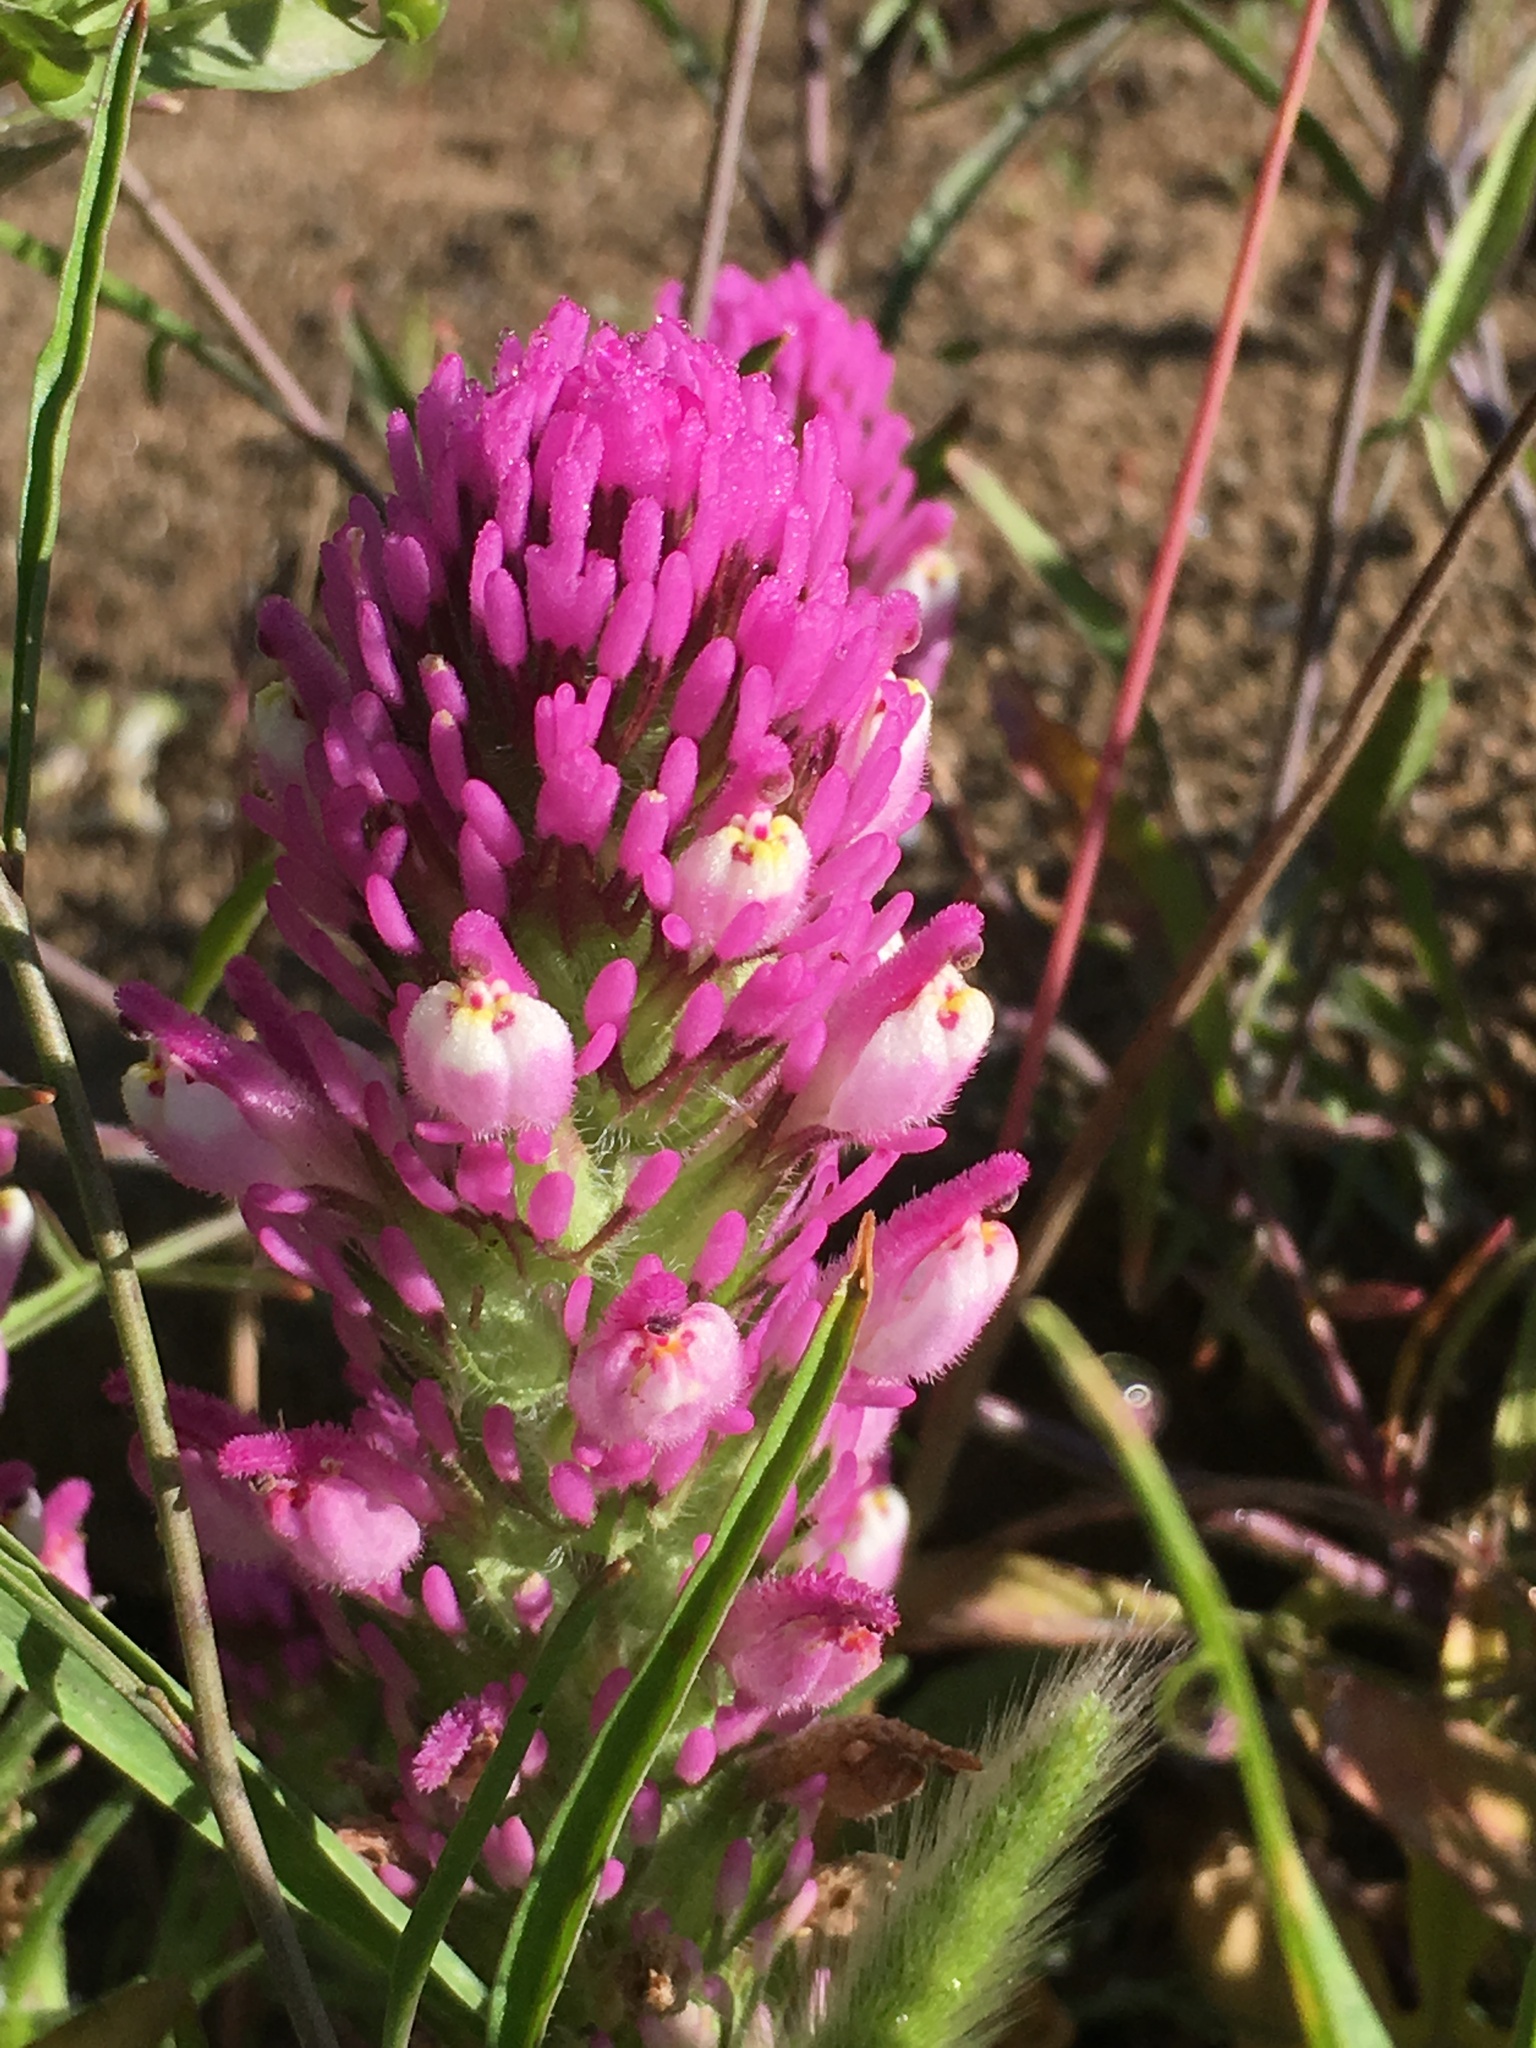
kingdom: Plantae
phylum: Tracheophyta
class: Magnoliopsida
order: Lamiales
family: Orobanchaceae
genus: Castilleja
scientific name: Castilleja exserta
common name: Purple owl-clover
